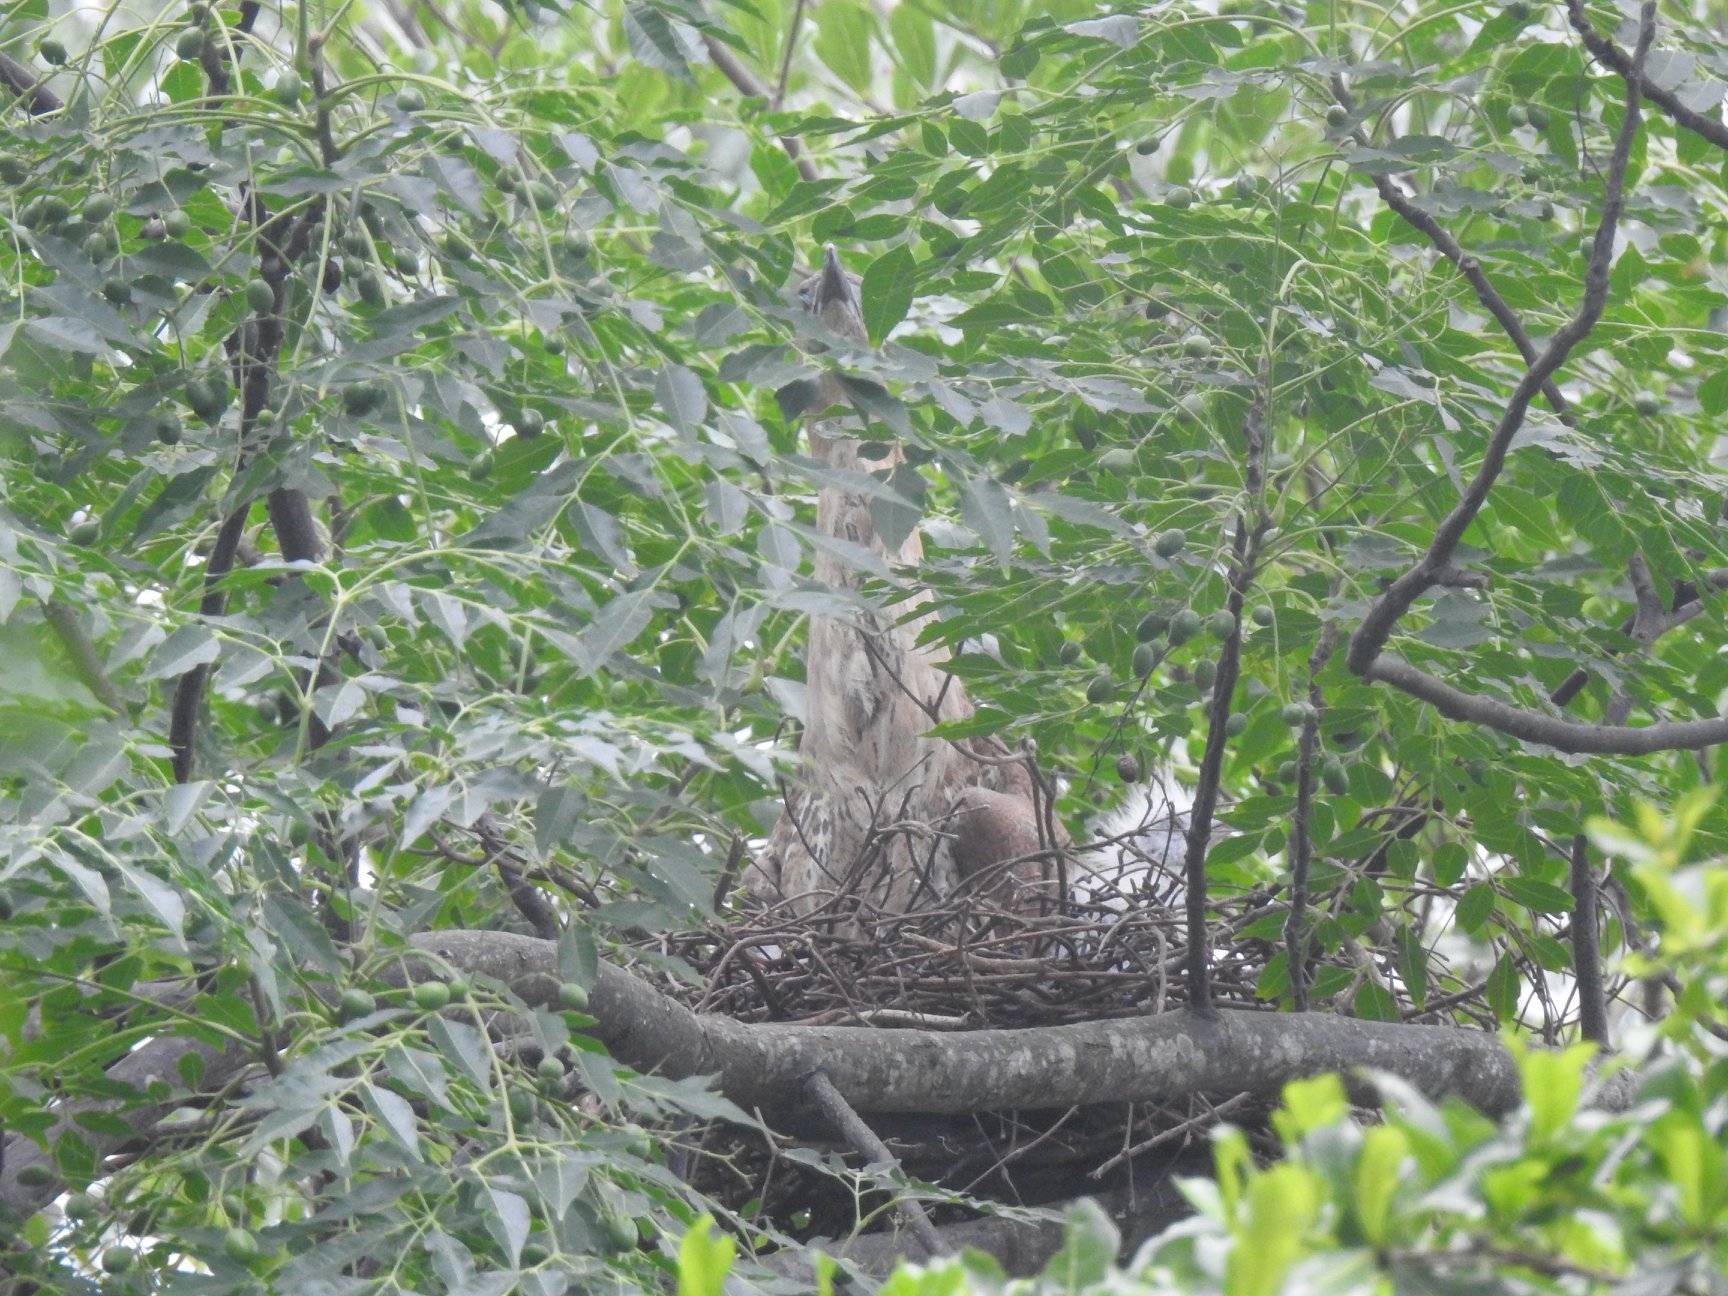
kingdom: Animalia
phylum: Chordata
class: Aves
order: Pelecaniformes
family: Ardeidae
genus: Gorsachius
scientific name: Gorsachius melanolophus
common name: Malayan night heron
